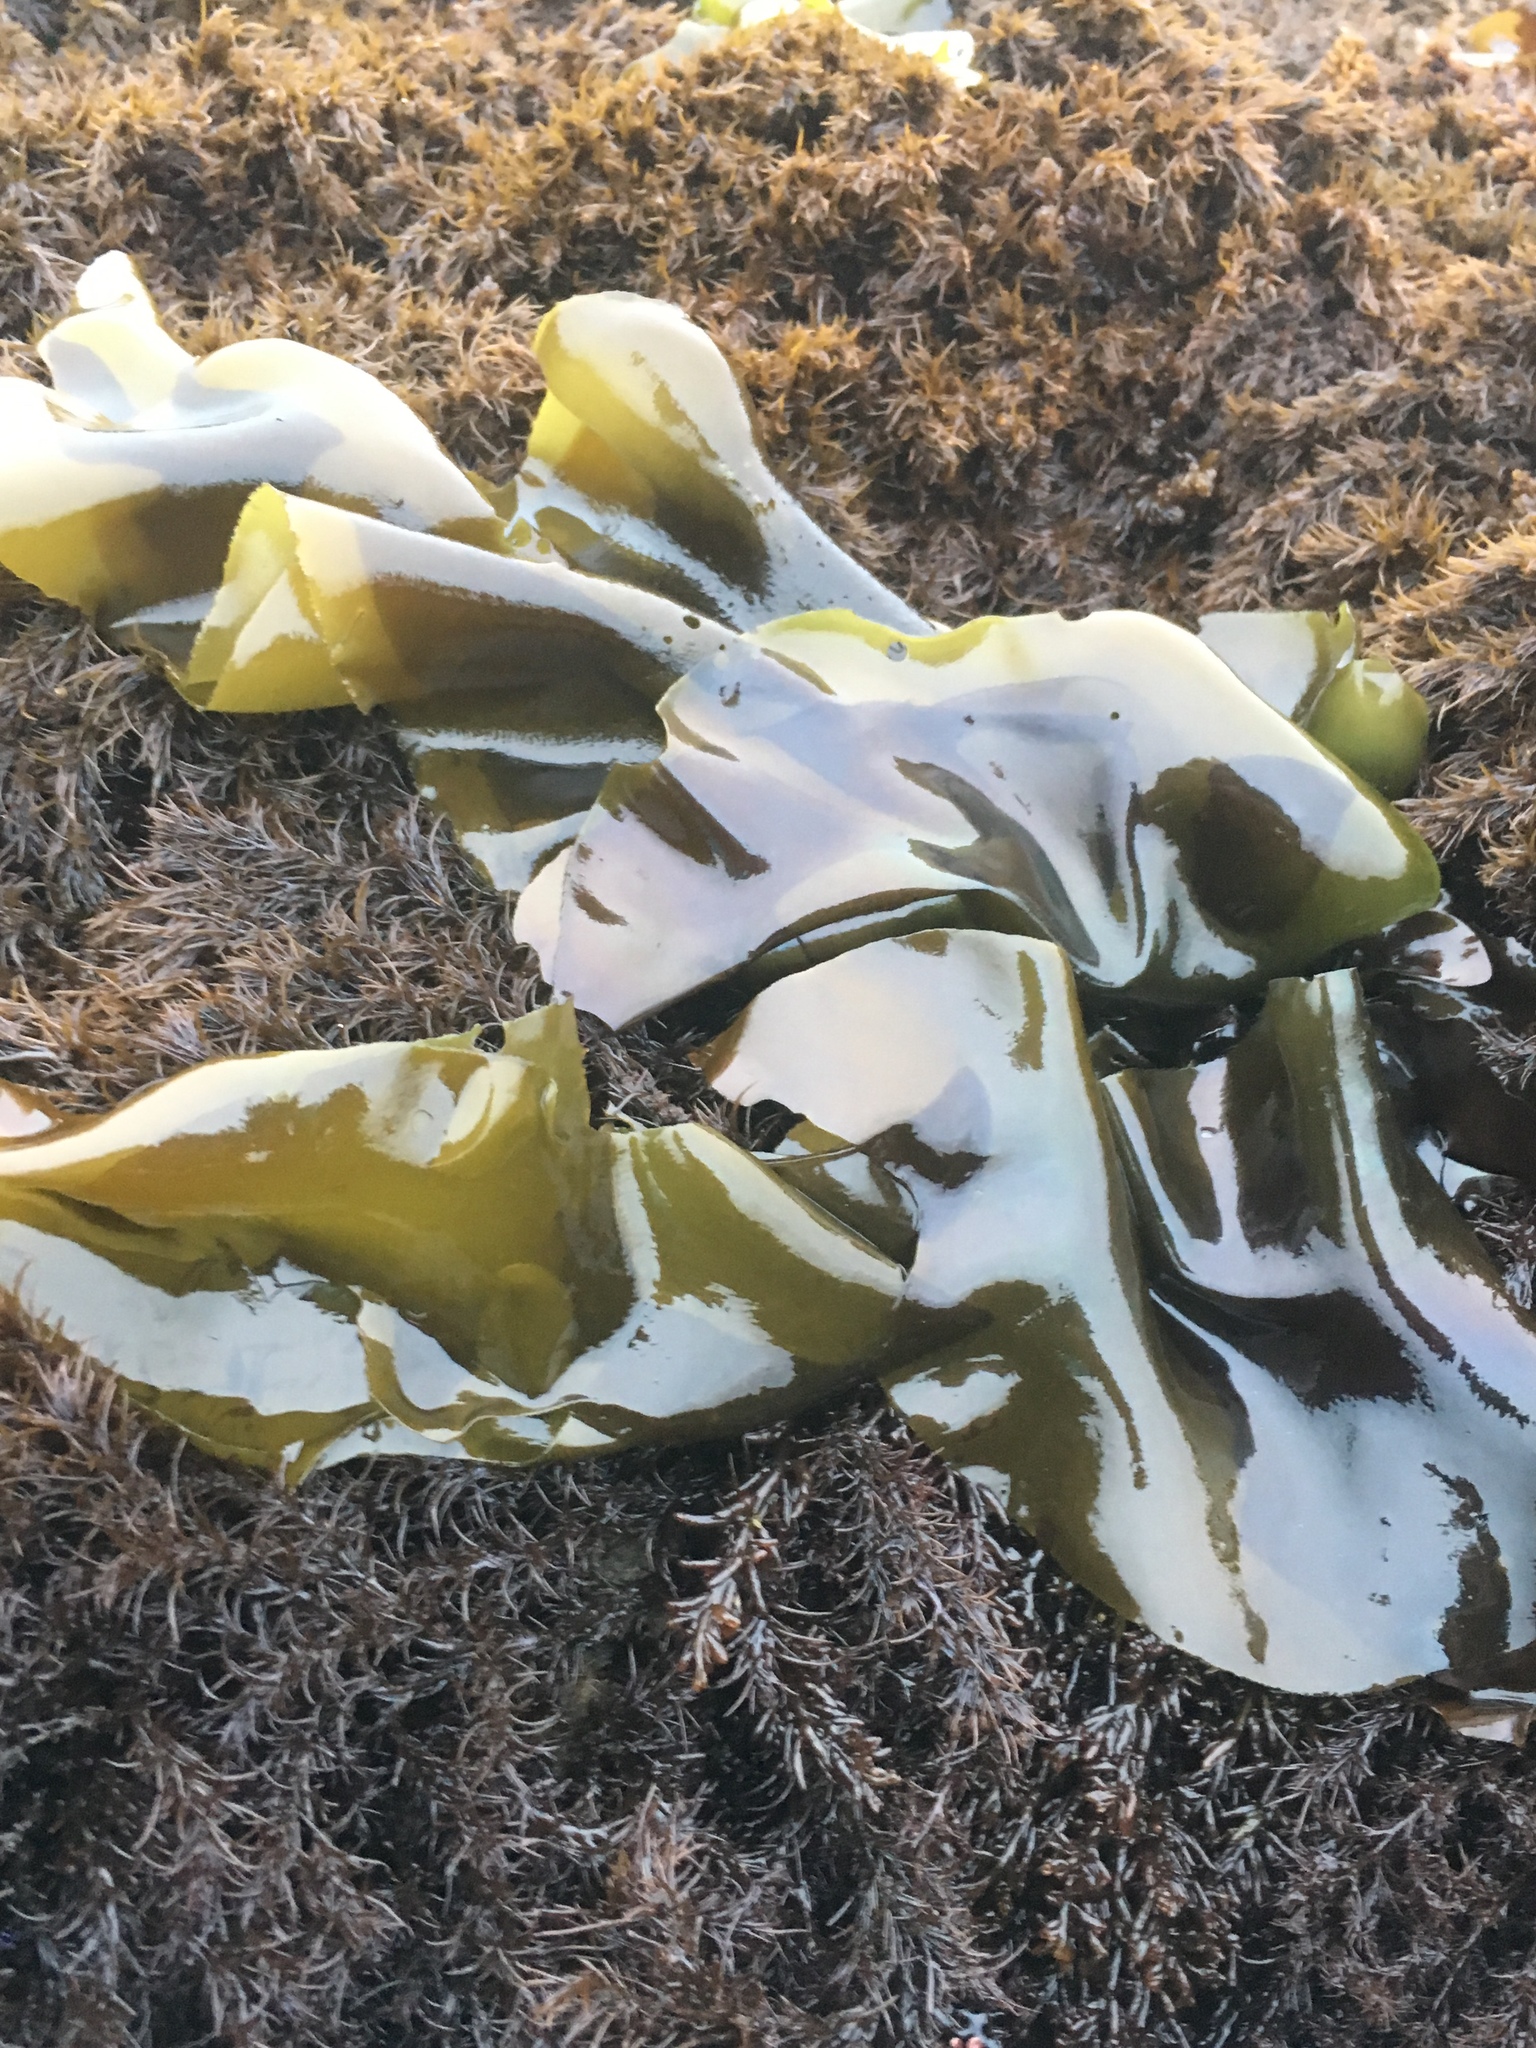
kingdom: Plantae
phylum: Rhodophyta
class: Florideophyceae
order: Gigartinales
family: Gigartinaceae
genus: Mazzaella
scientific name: Mazzaella flaccida
